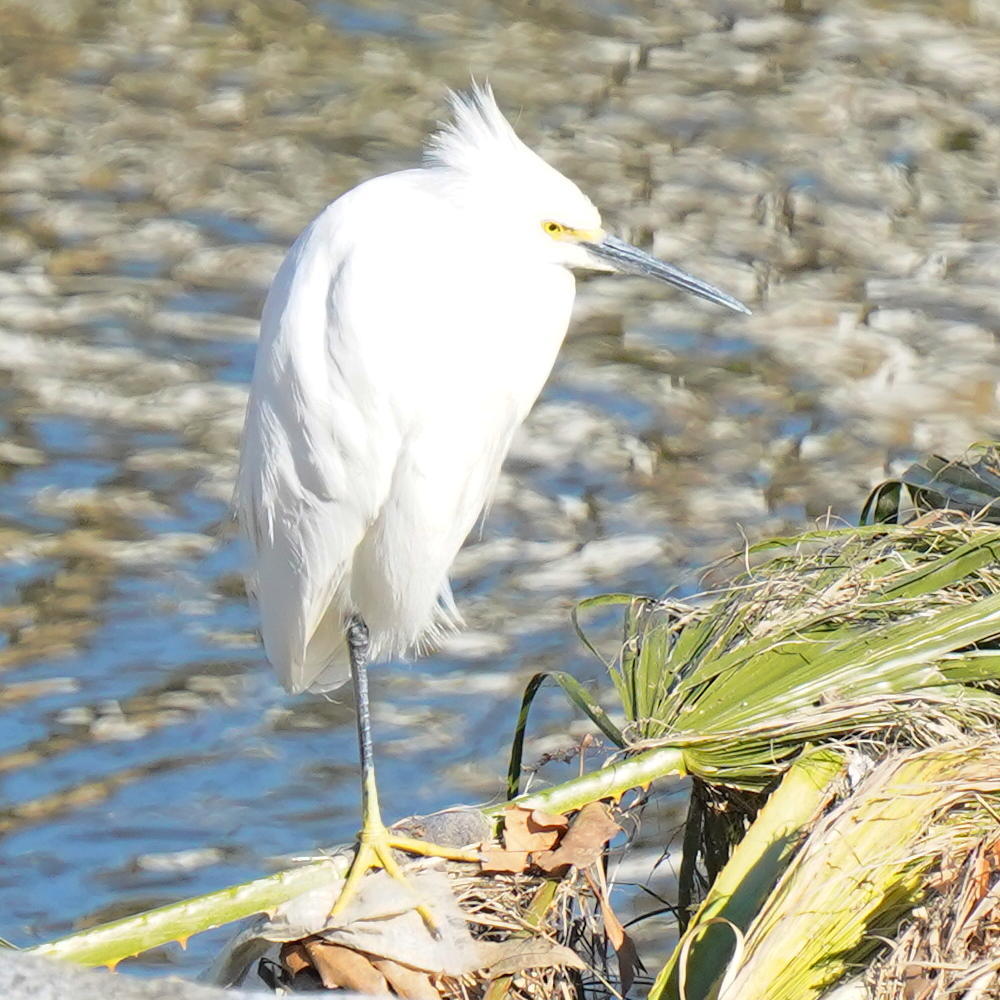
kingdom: Animalia
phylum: Chordata
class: Aves
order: Pelecaniformes
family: Ardeidae
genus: Egretta
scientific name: Egretta thula
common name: Snowy egret
